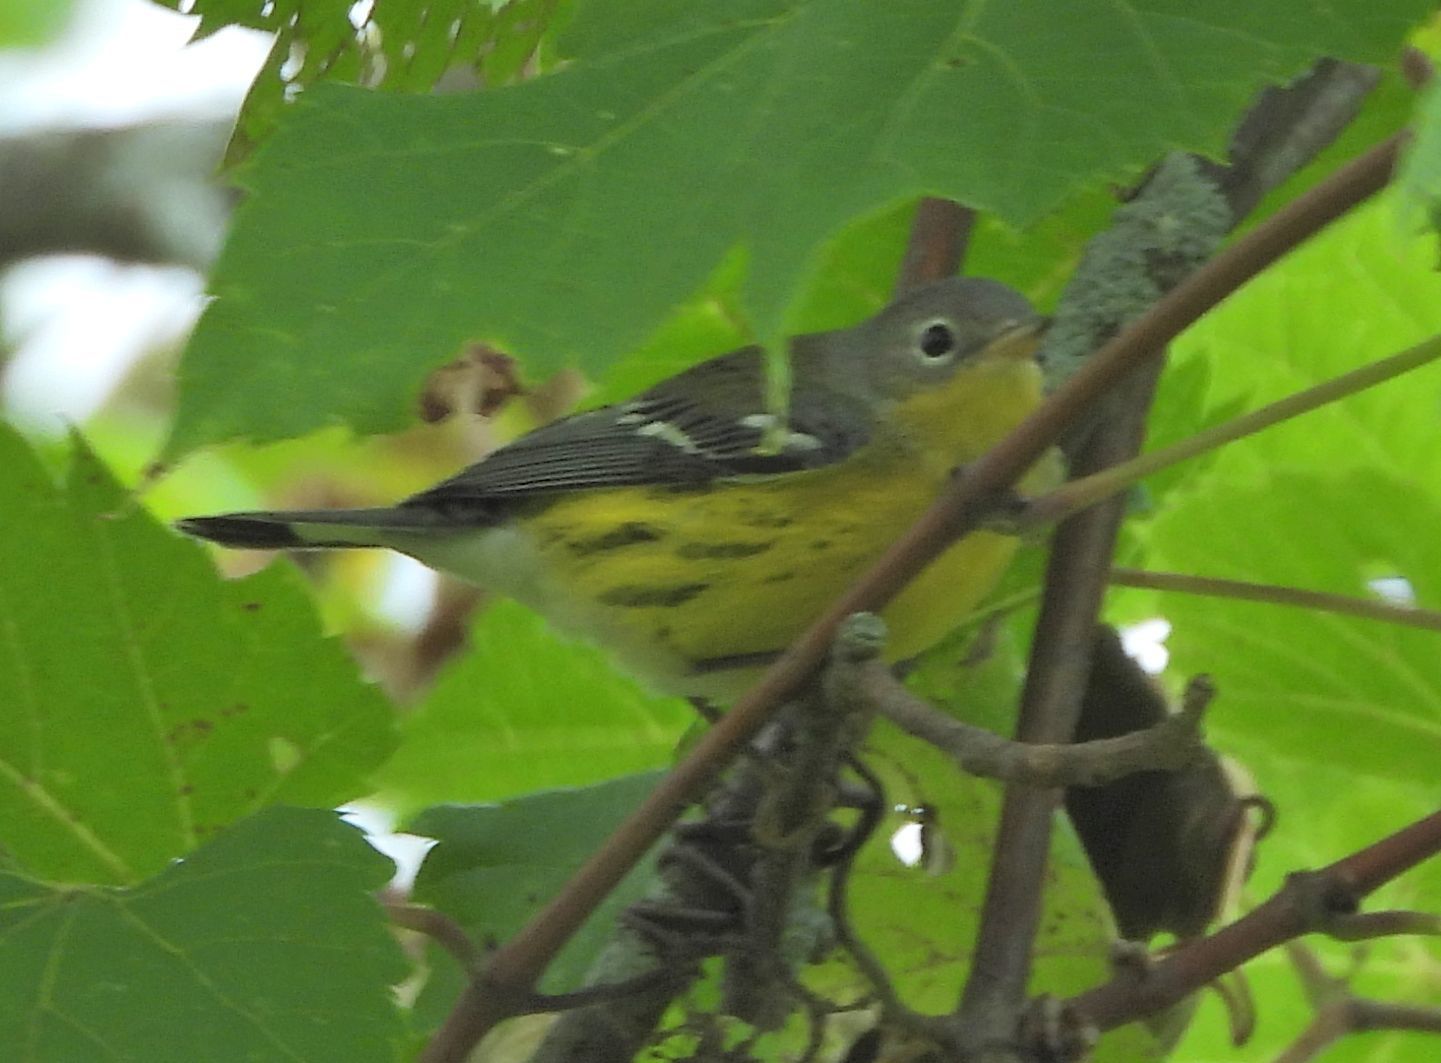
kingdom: Animalia
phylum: Chordata
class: Aves
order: Passeriformes
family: Parulidae
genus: Setophaga
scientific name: Setophaga magnolia
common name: Magnolia warbler
